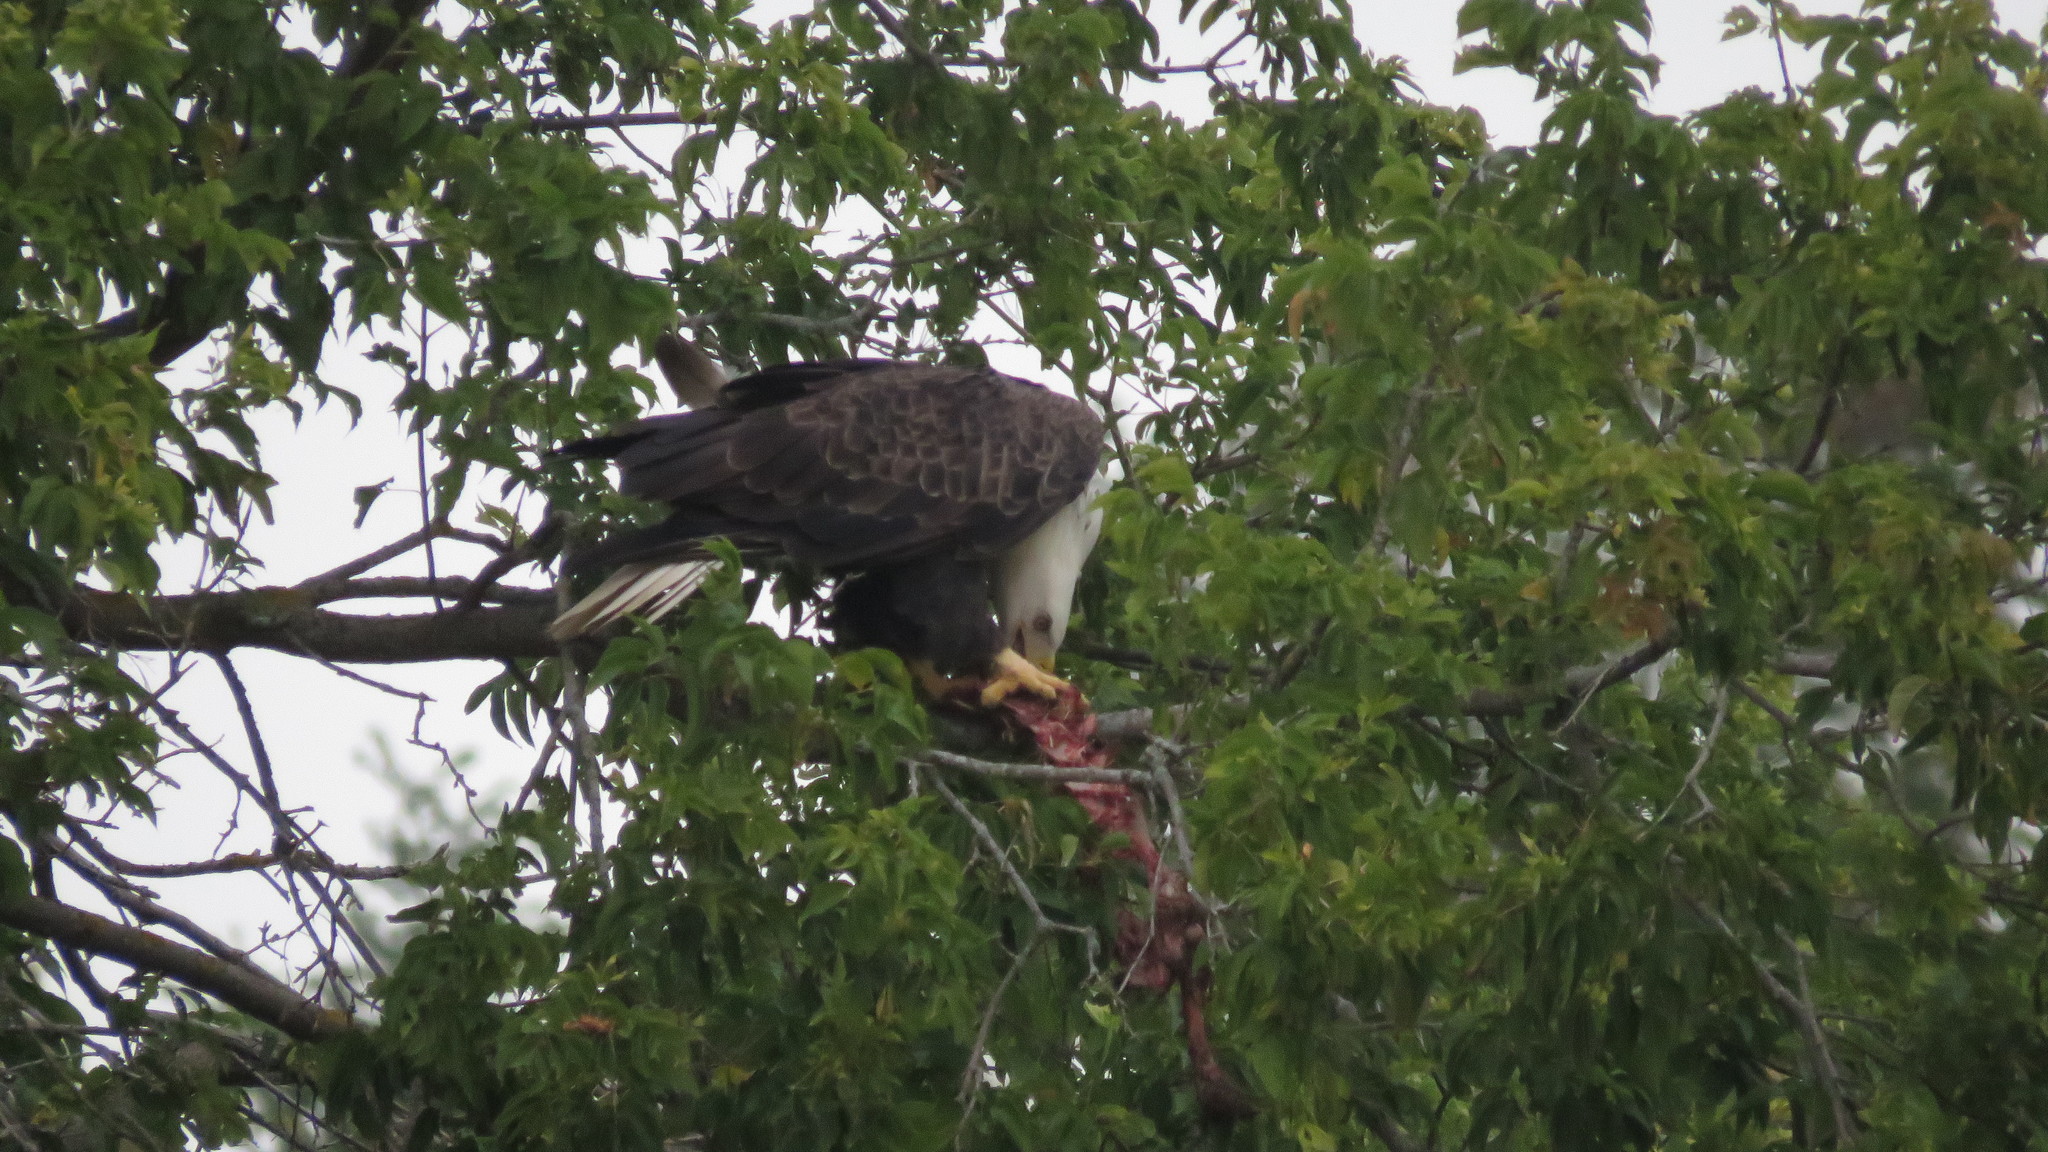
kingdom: Animalia
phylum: Chordata
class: Aves
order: Accipitriformes
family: Accipitridae
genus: Haliaeetus
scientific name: Haliaeetus leucocephalus
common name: Bald eagle
